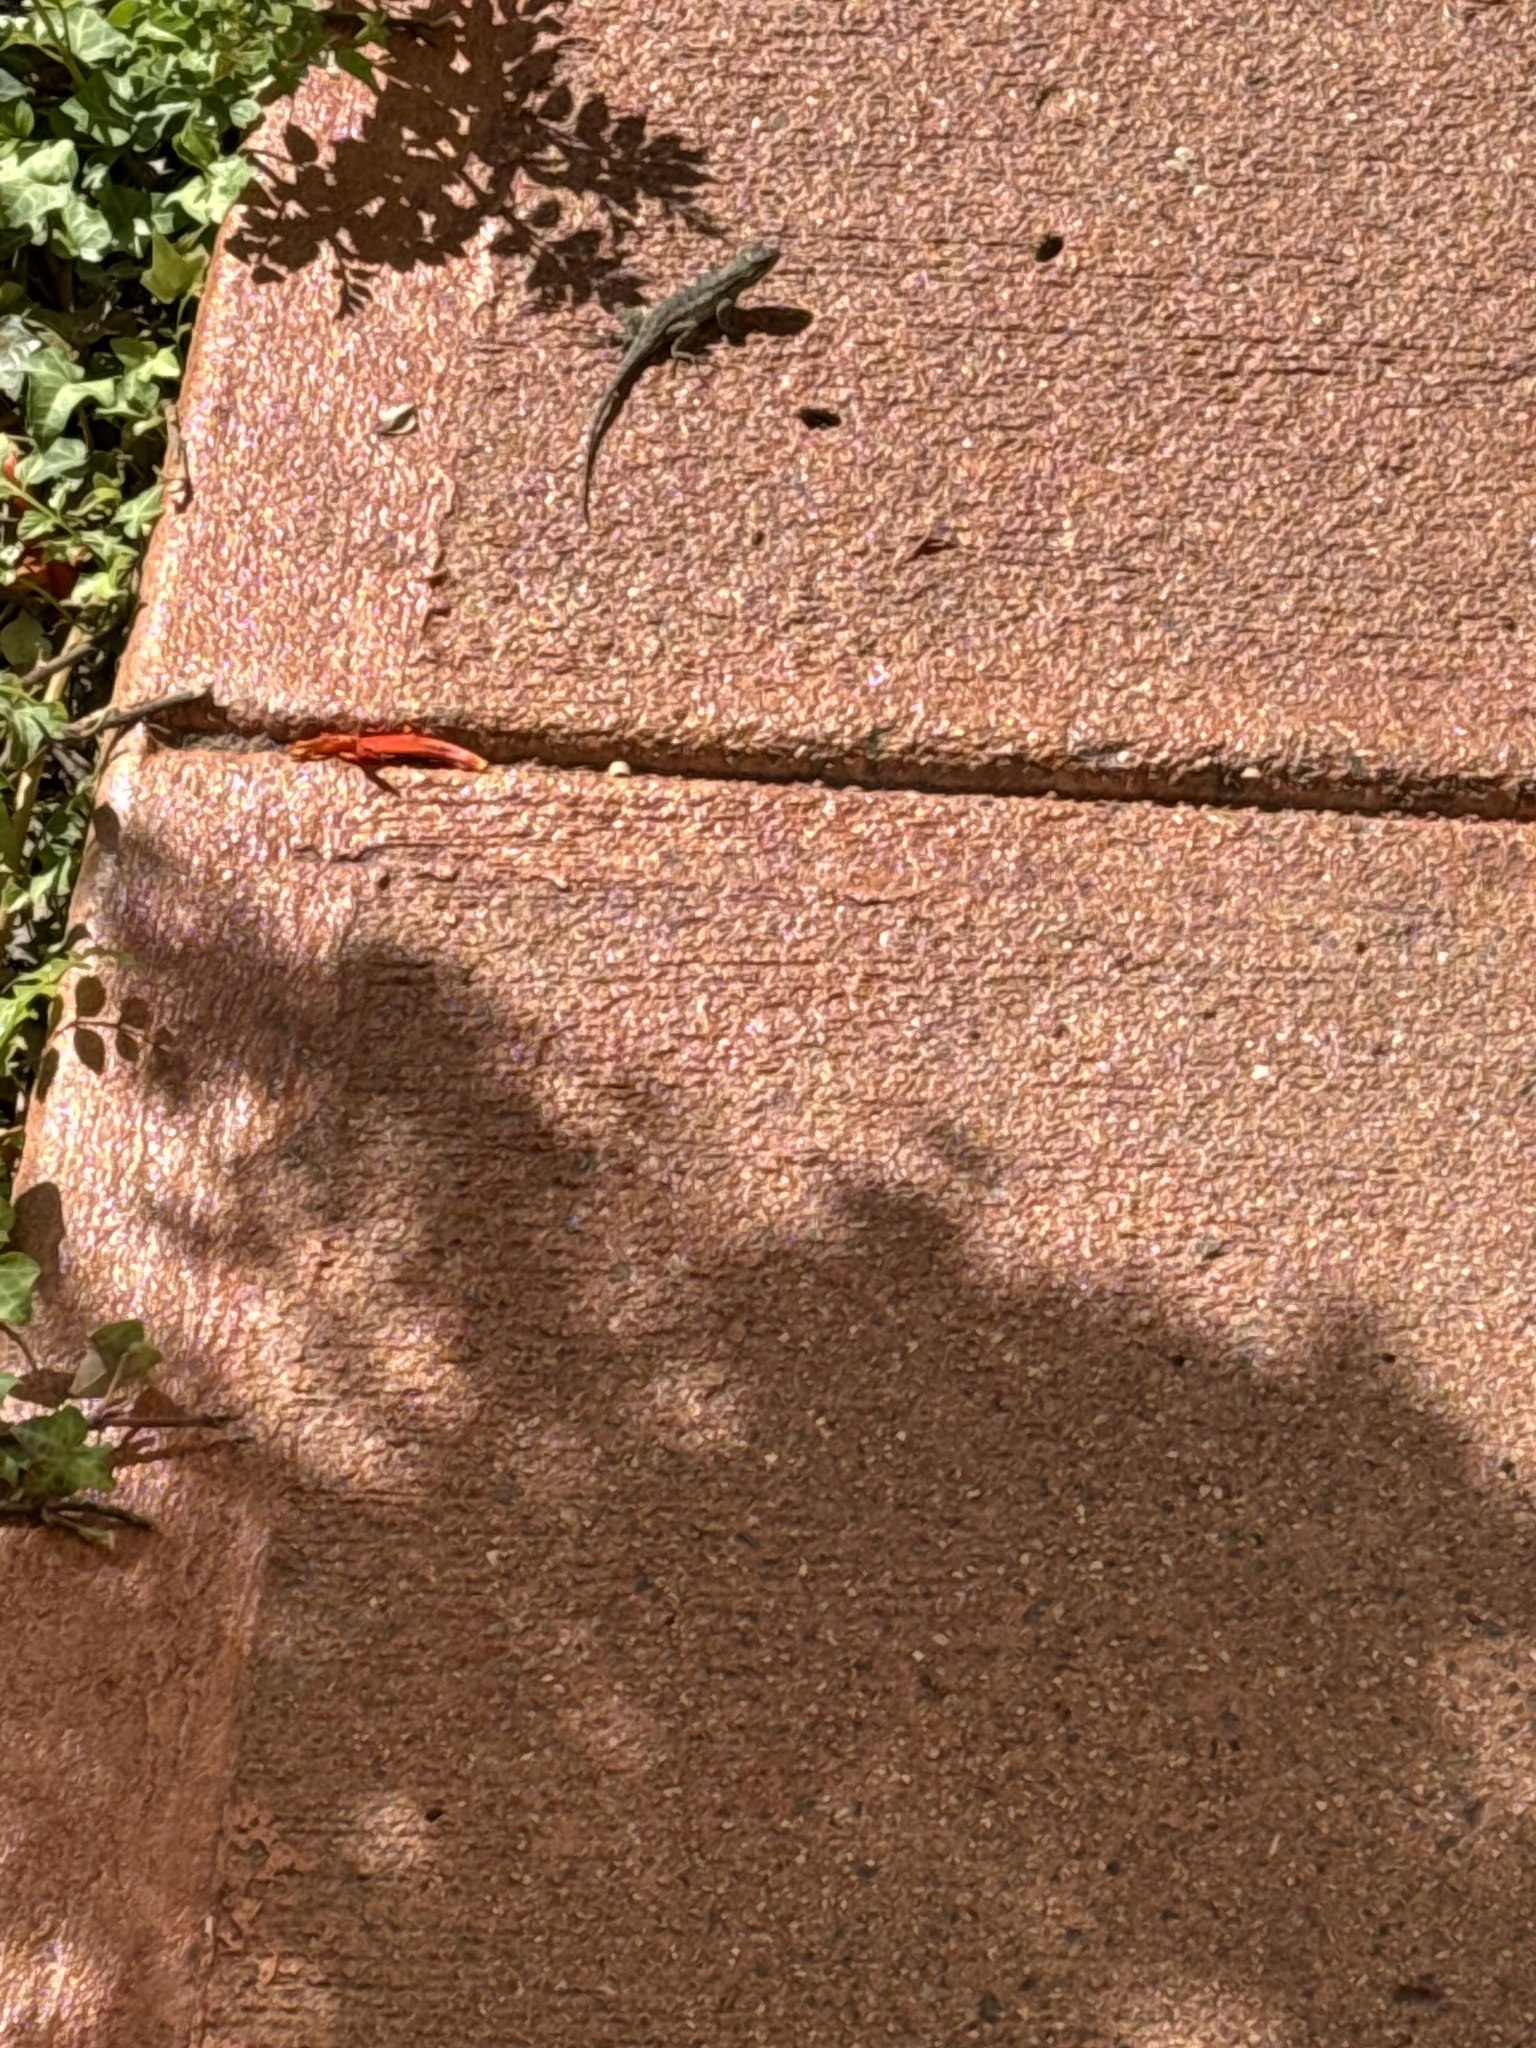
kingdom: Animalia
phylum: Chordata
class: Squamata
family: Phrynosomatidae
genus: Sceloporus
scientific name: Sceloporus occidentalis
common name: Western fence lizard
